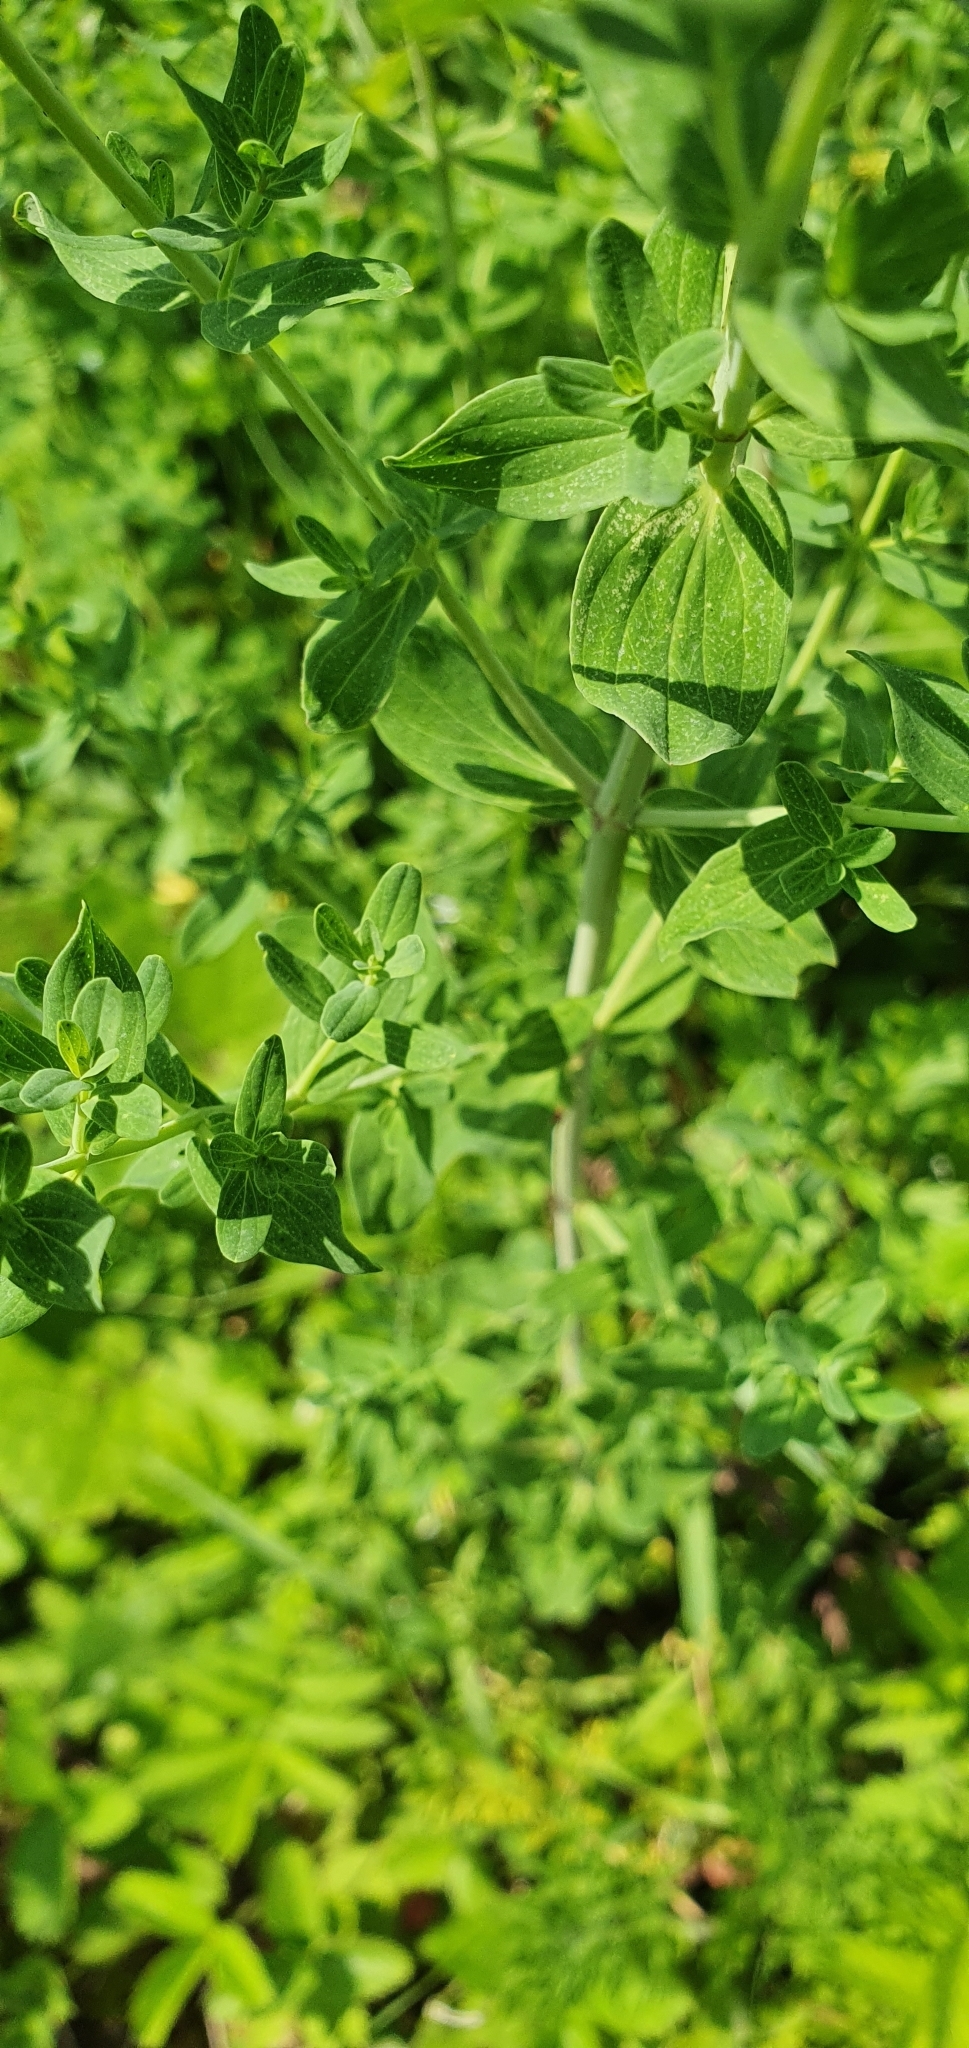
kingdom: Plantae
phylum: Tracheophyta
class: Magnoliopsida
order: Malpighiales
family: Hypericaceae
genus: Hypericum
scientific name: Hypericum perforatum
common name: Common st. johnswort
